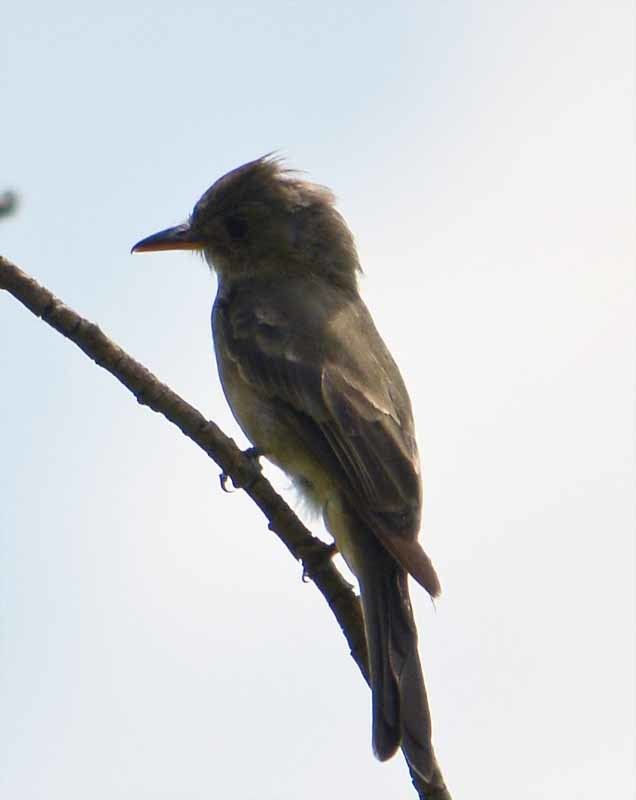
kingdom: Animalia
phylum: Chordata
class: Aves
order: Passeriformes
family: Tyrannidae
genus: Contopus
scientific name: Contopus pertinax
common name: Greater pewee
